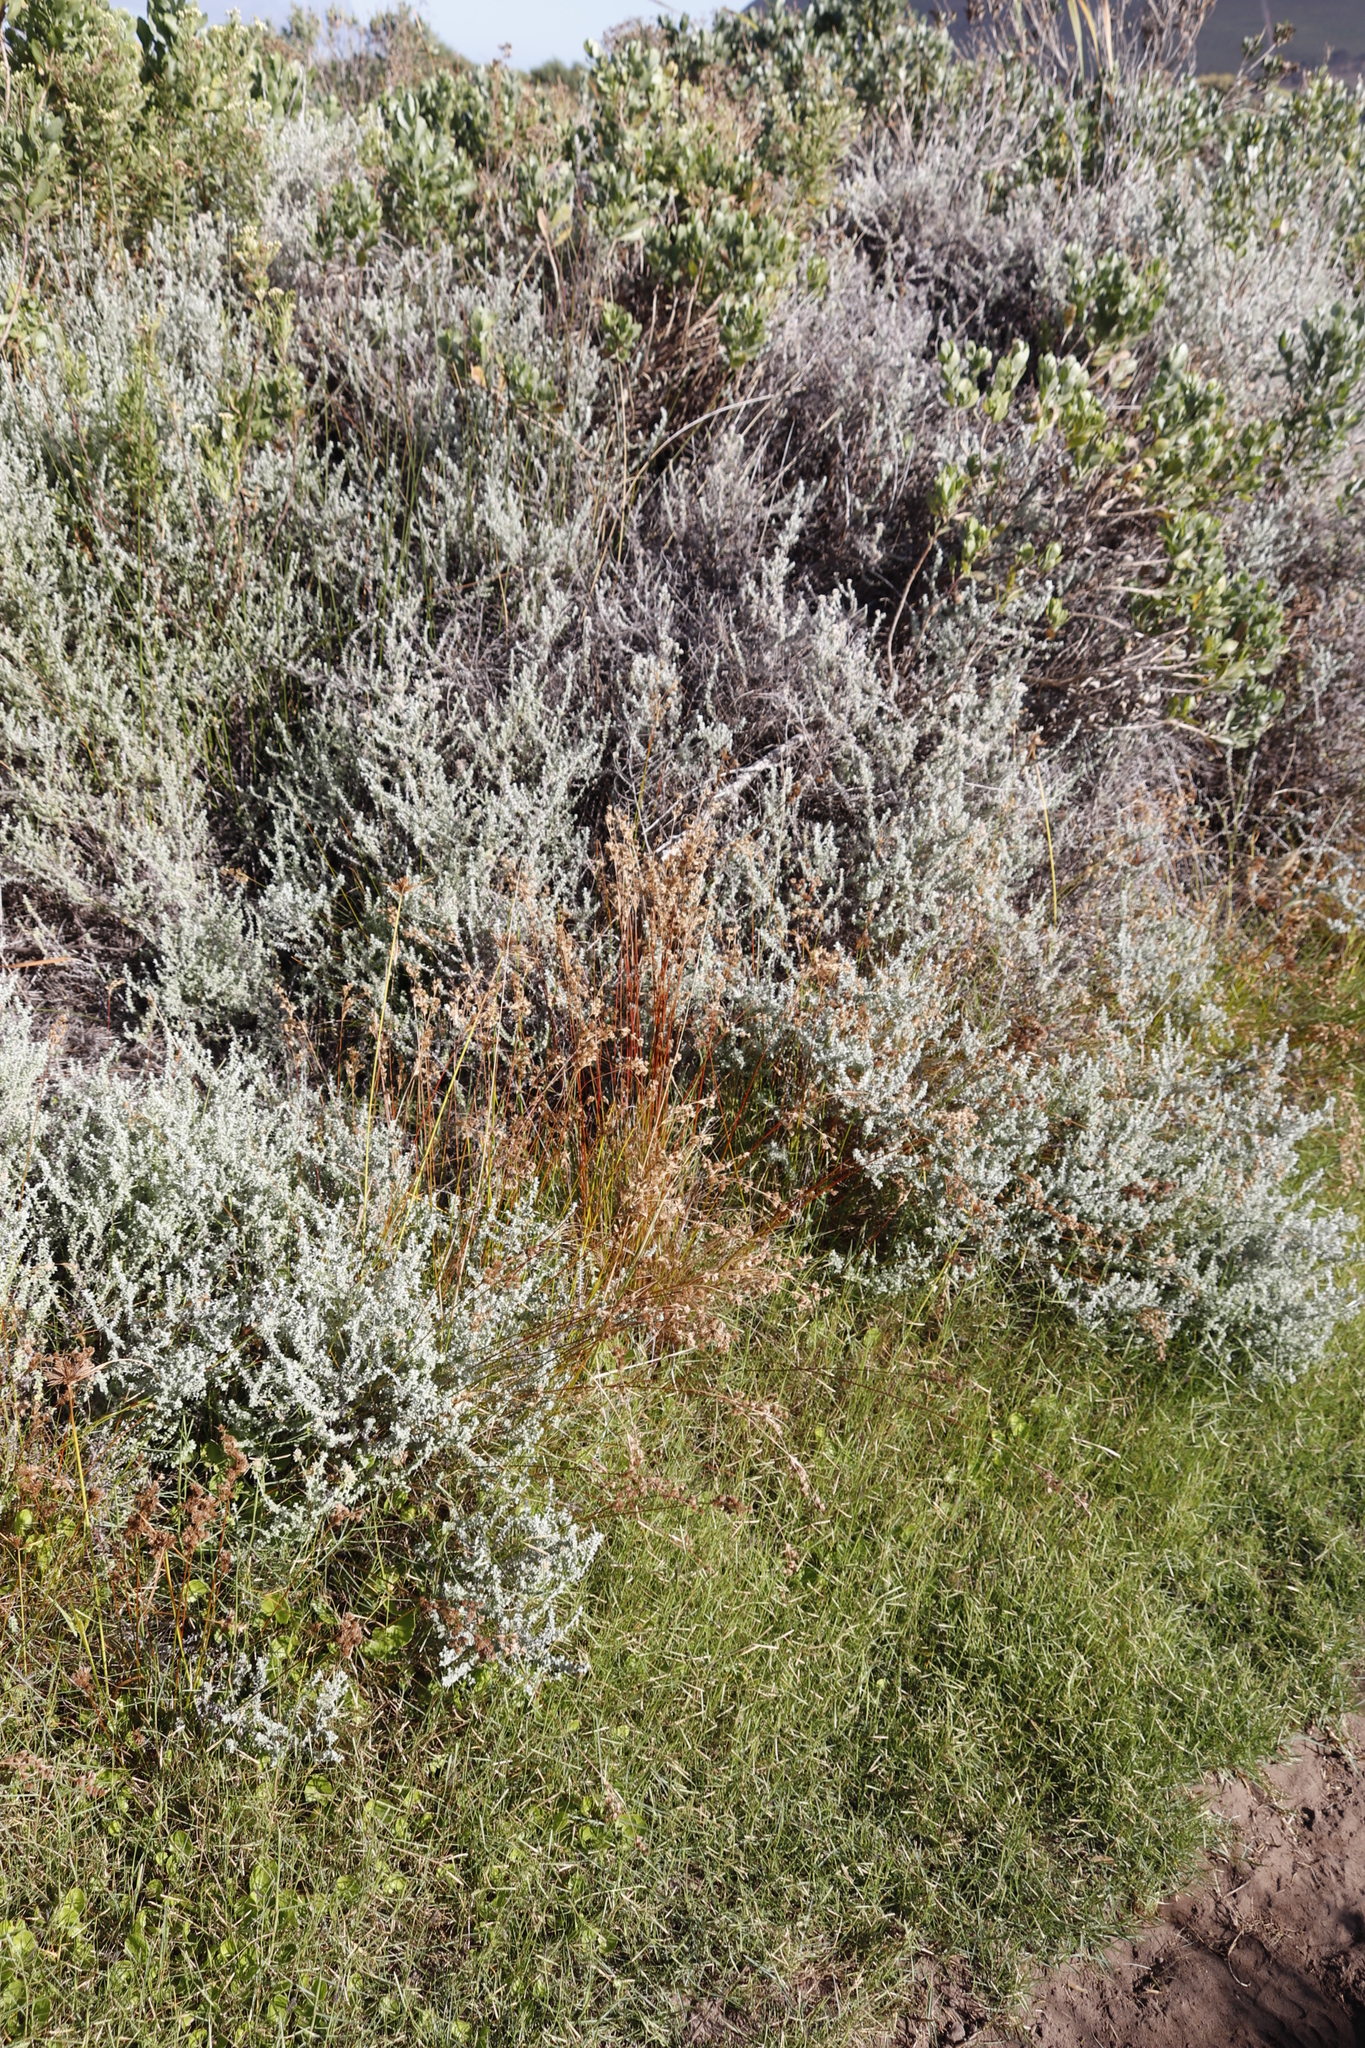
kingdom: Plantae
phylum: Tracheophyta
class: Liliopsida
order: Poales
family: Juncaceae
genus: Juncus
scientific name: Juncus capensis
